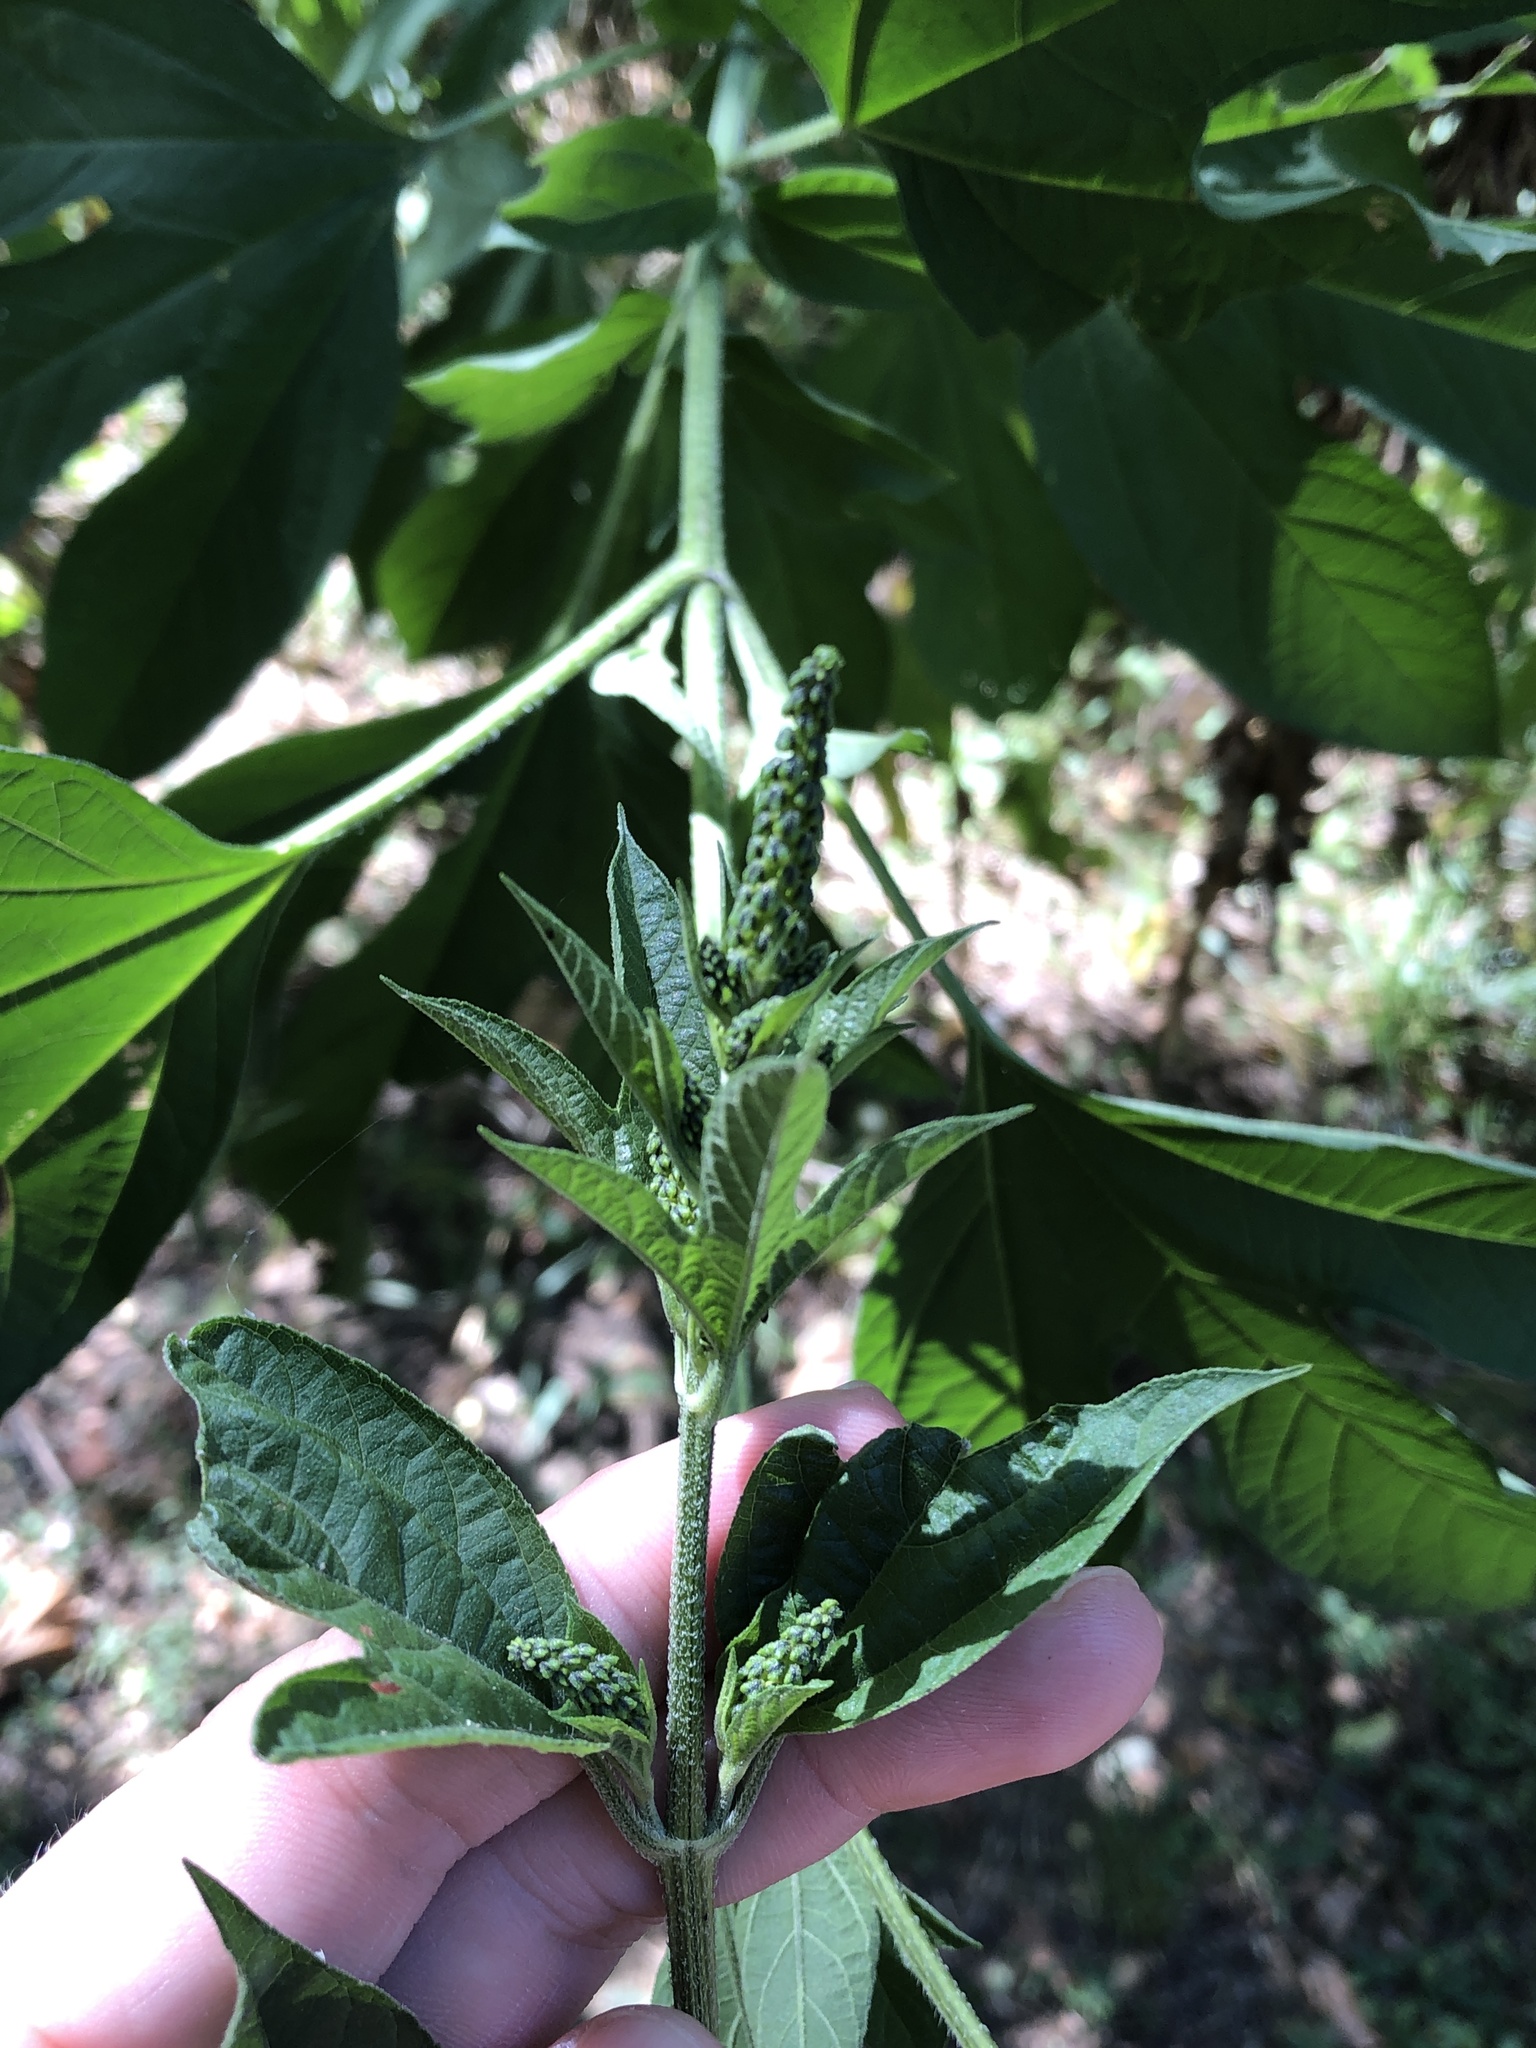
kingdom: Plantae
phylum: Tracheophyta
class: Magnoliopsida
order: Asterales
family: Asteraceae
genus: Ambrosia
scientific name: Ambrosia trifida
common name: Giant ragweed
